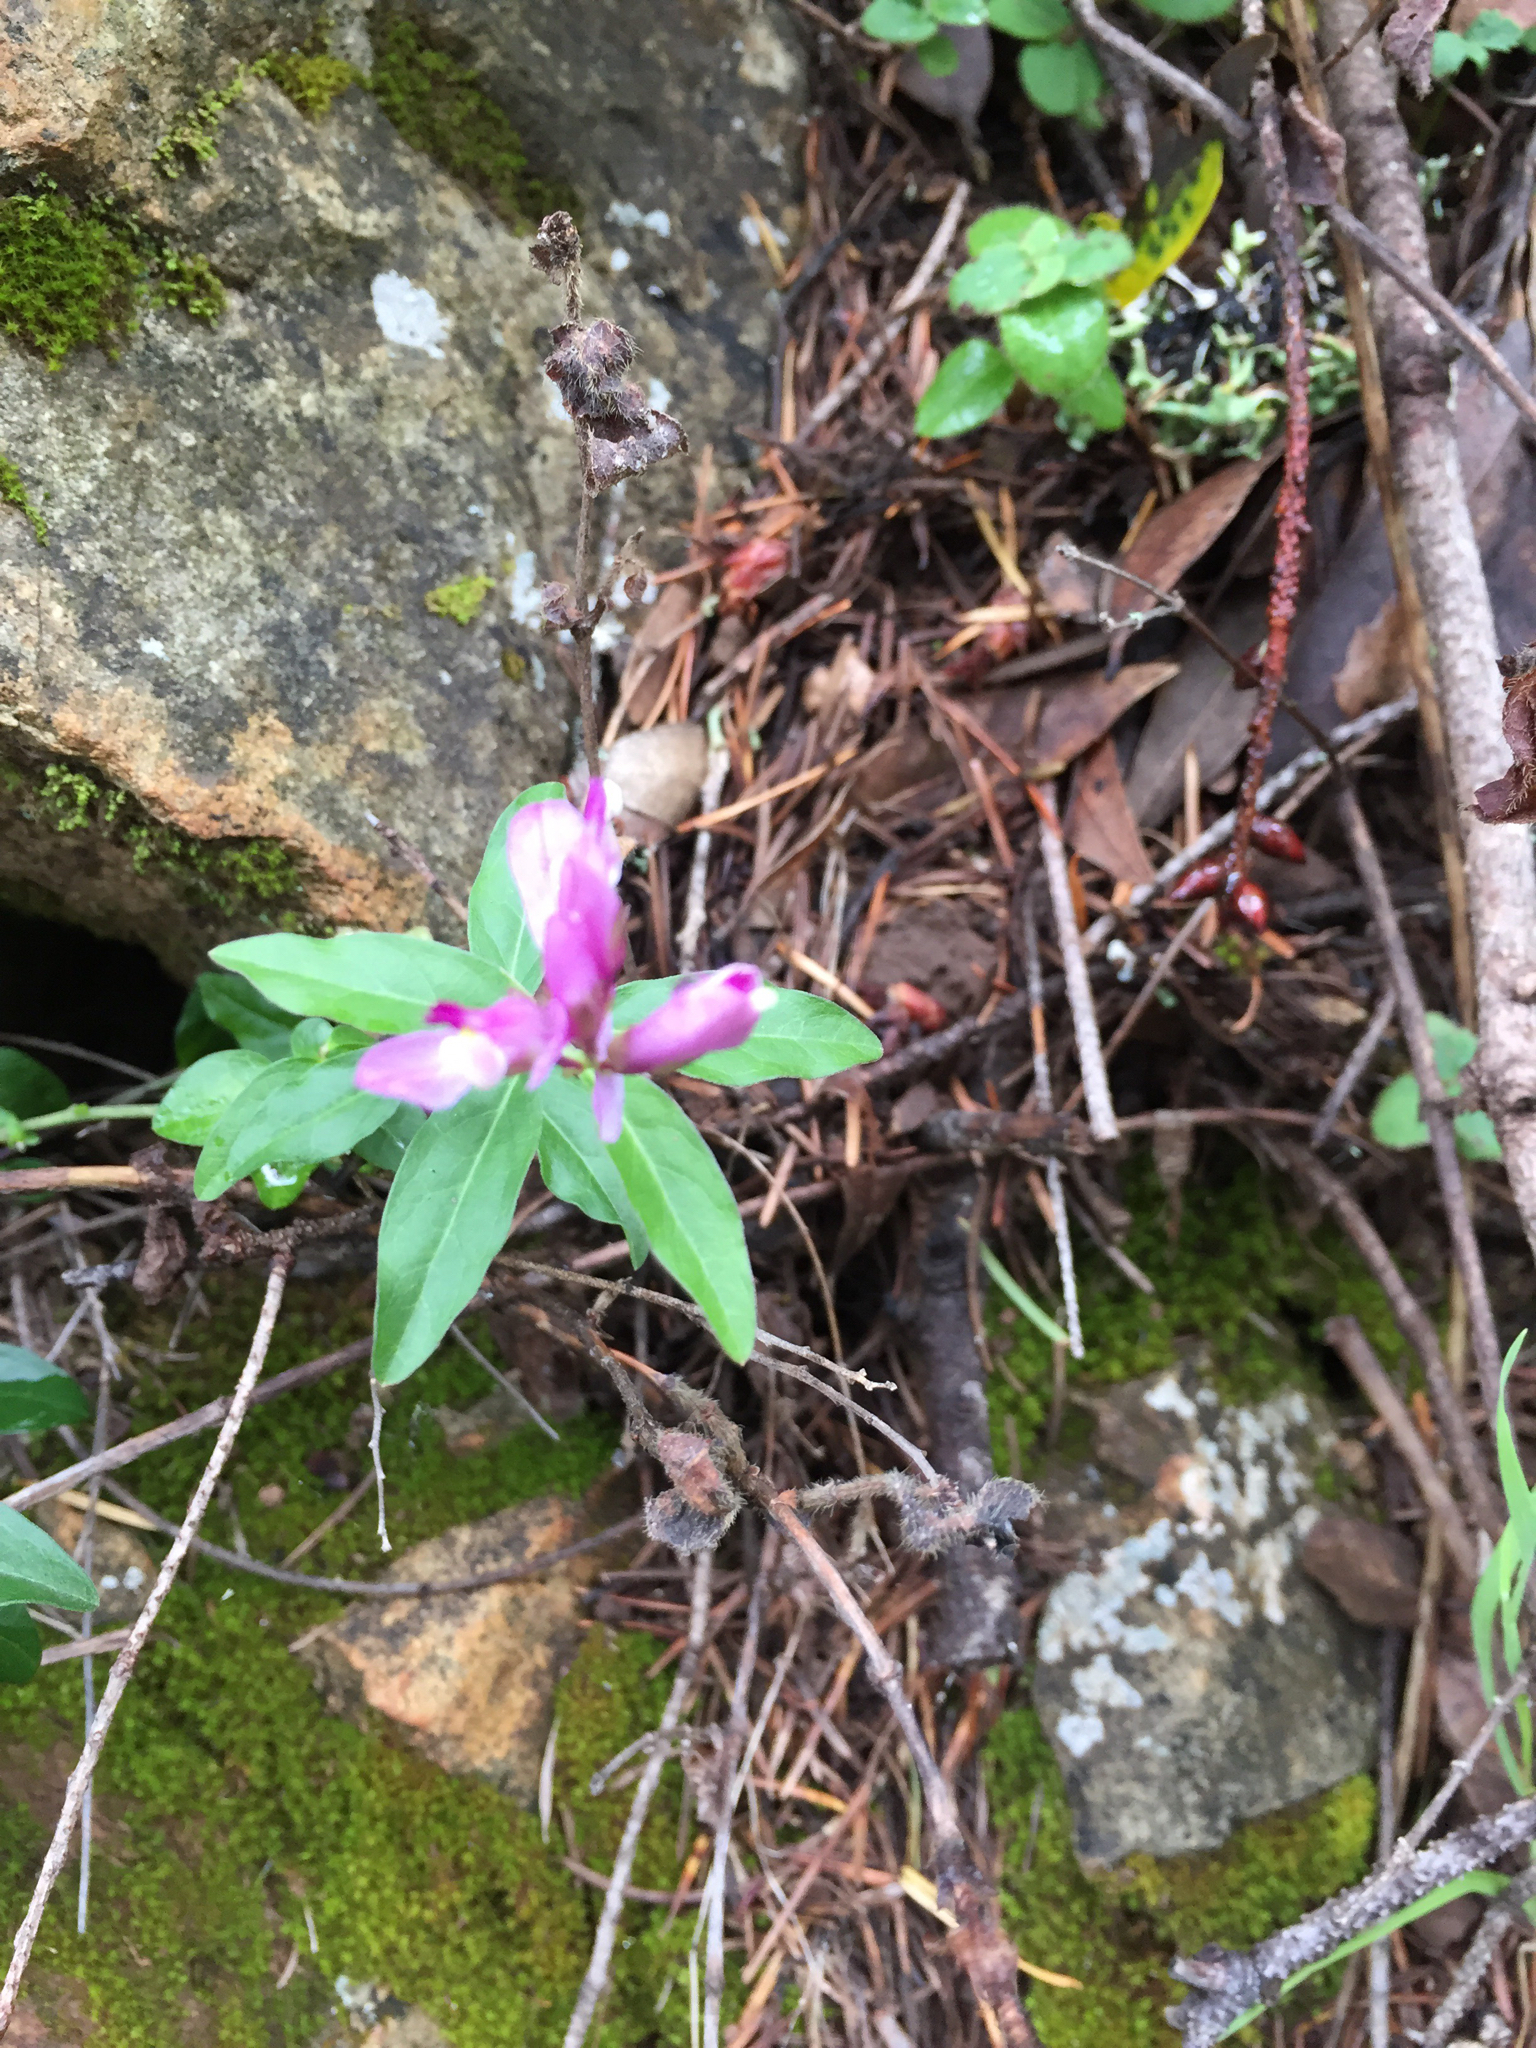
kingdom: Plantae
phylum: Tracheophyta
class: Magnoliopsida
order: Fabales
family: Polygalaceae
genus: Rhinotropis
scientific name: Rhinotropis californica
